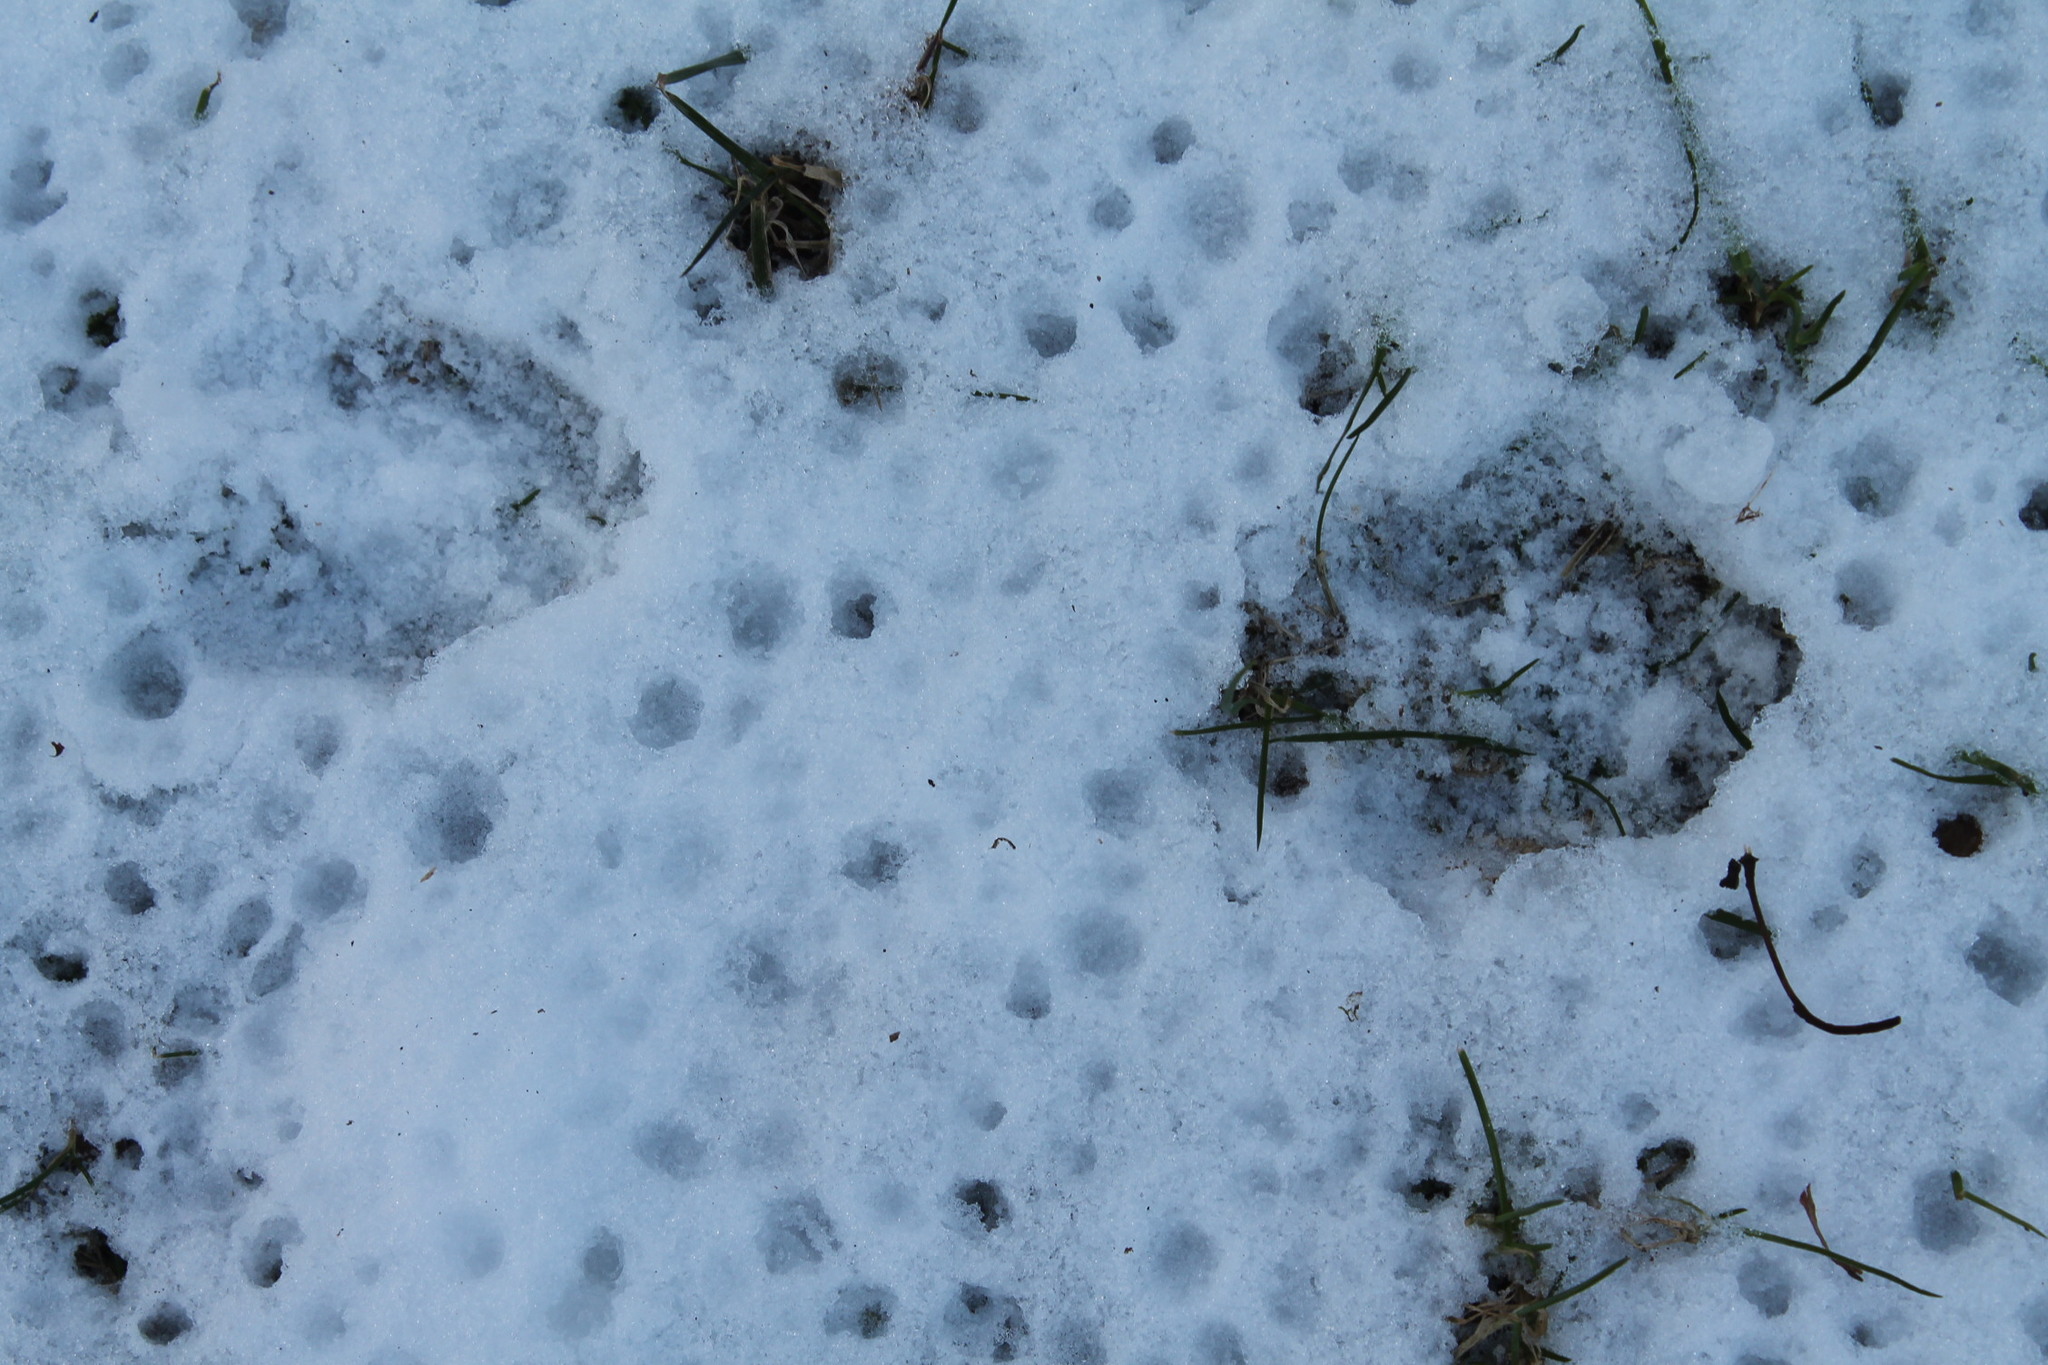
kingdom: Animalia
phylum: Chordata
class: Mammalia
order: Artiodactyla
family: Cervidae
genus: Odocoileus
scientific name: Odocoileus virginianus
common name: White-tailed deer
